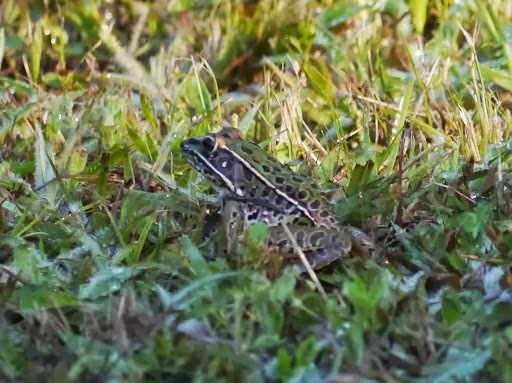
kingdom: Animalia
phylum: Chordata
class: Amphibia
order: Anura
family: Ranidae
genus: Lithobates
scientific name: Lithobates sphenocephalus
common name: Southern leopard frog
